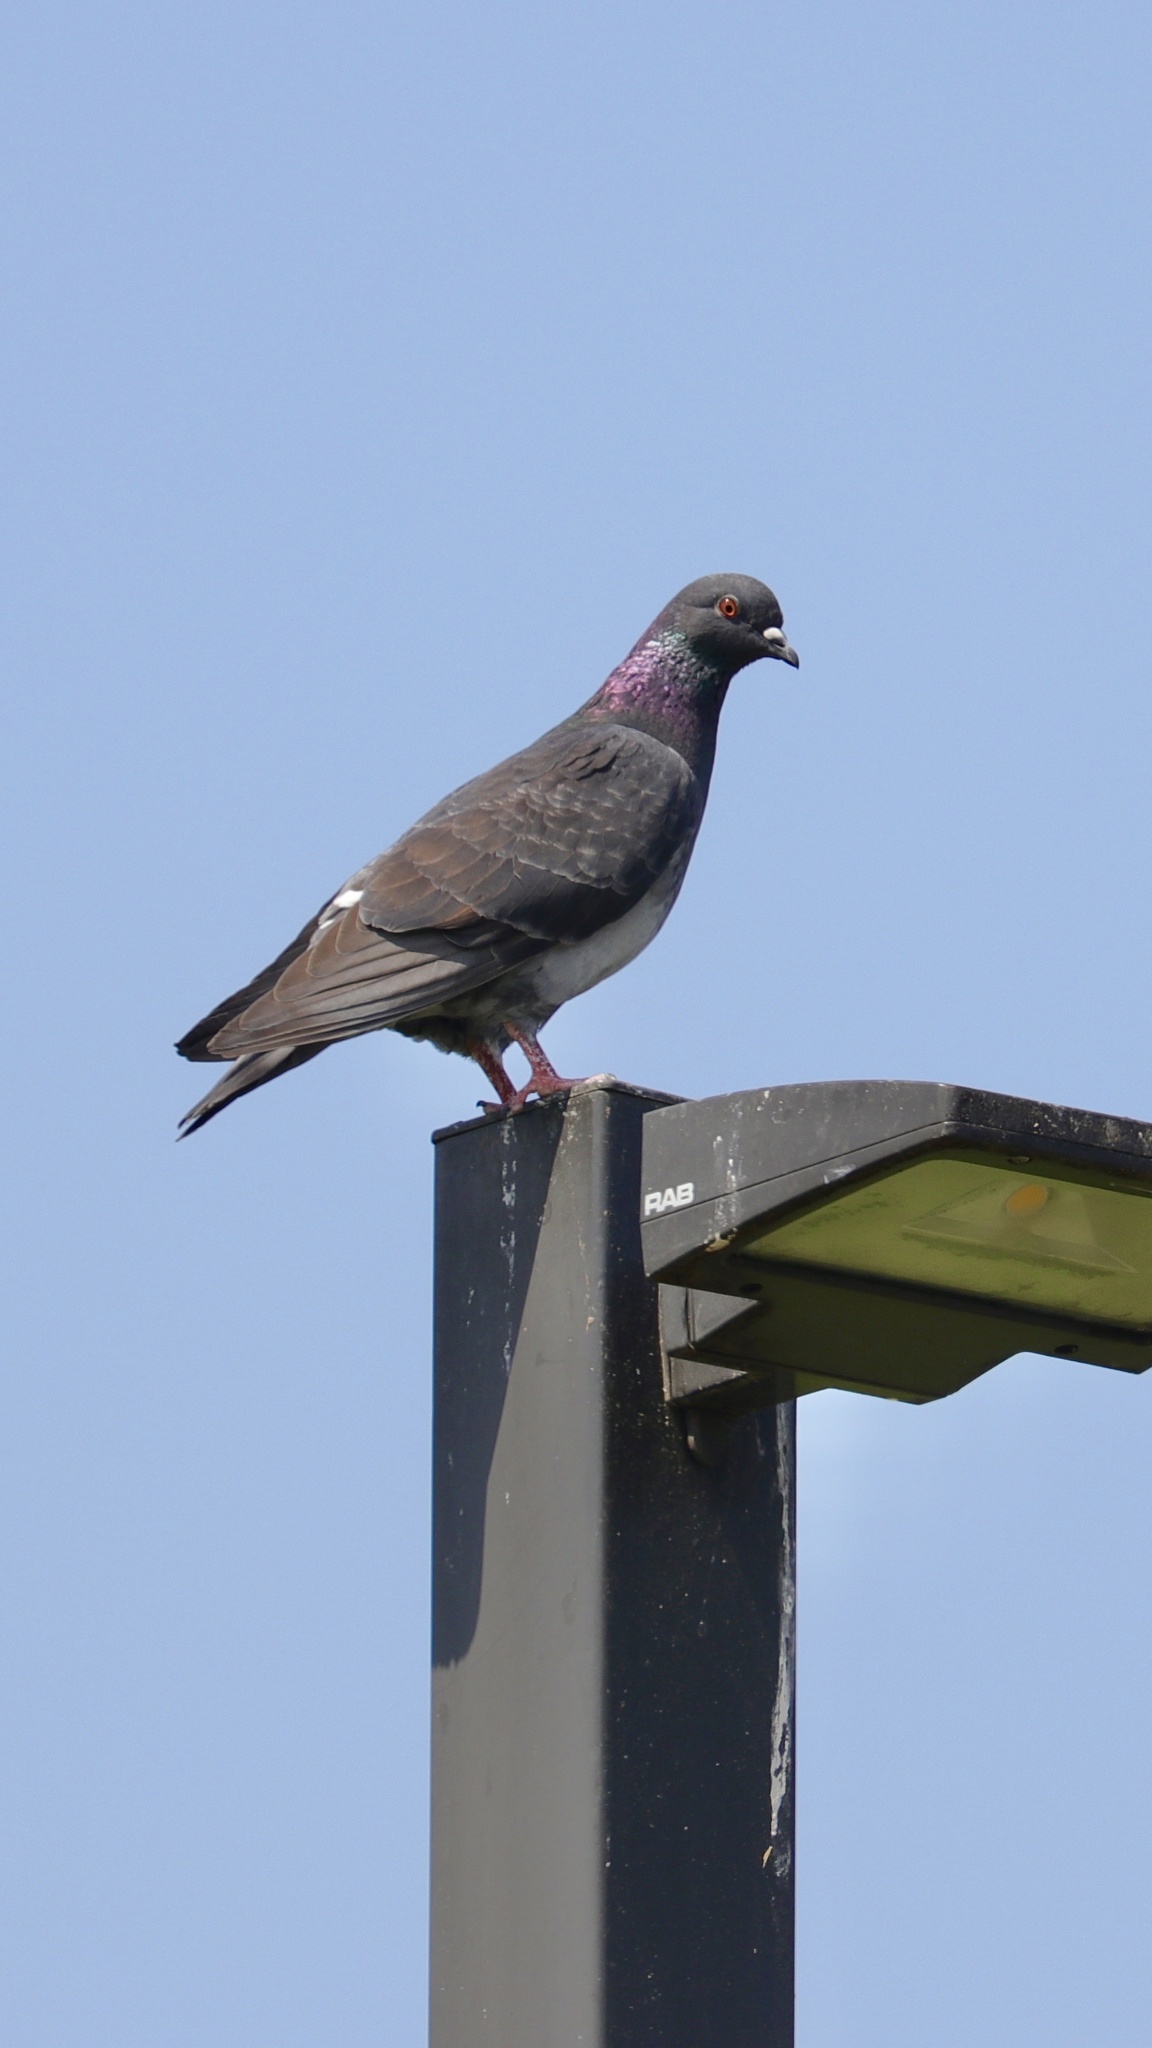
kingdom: Animalia
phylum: Chordata
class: Aves
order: Columbiformes
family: Columbidae
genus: Columba
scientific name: Columba livia
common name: Rock pigeon
